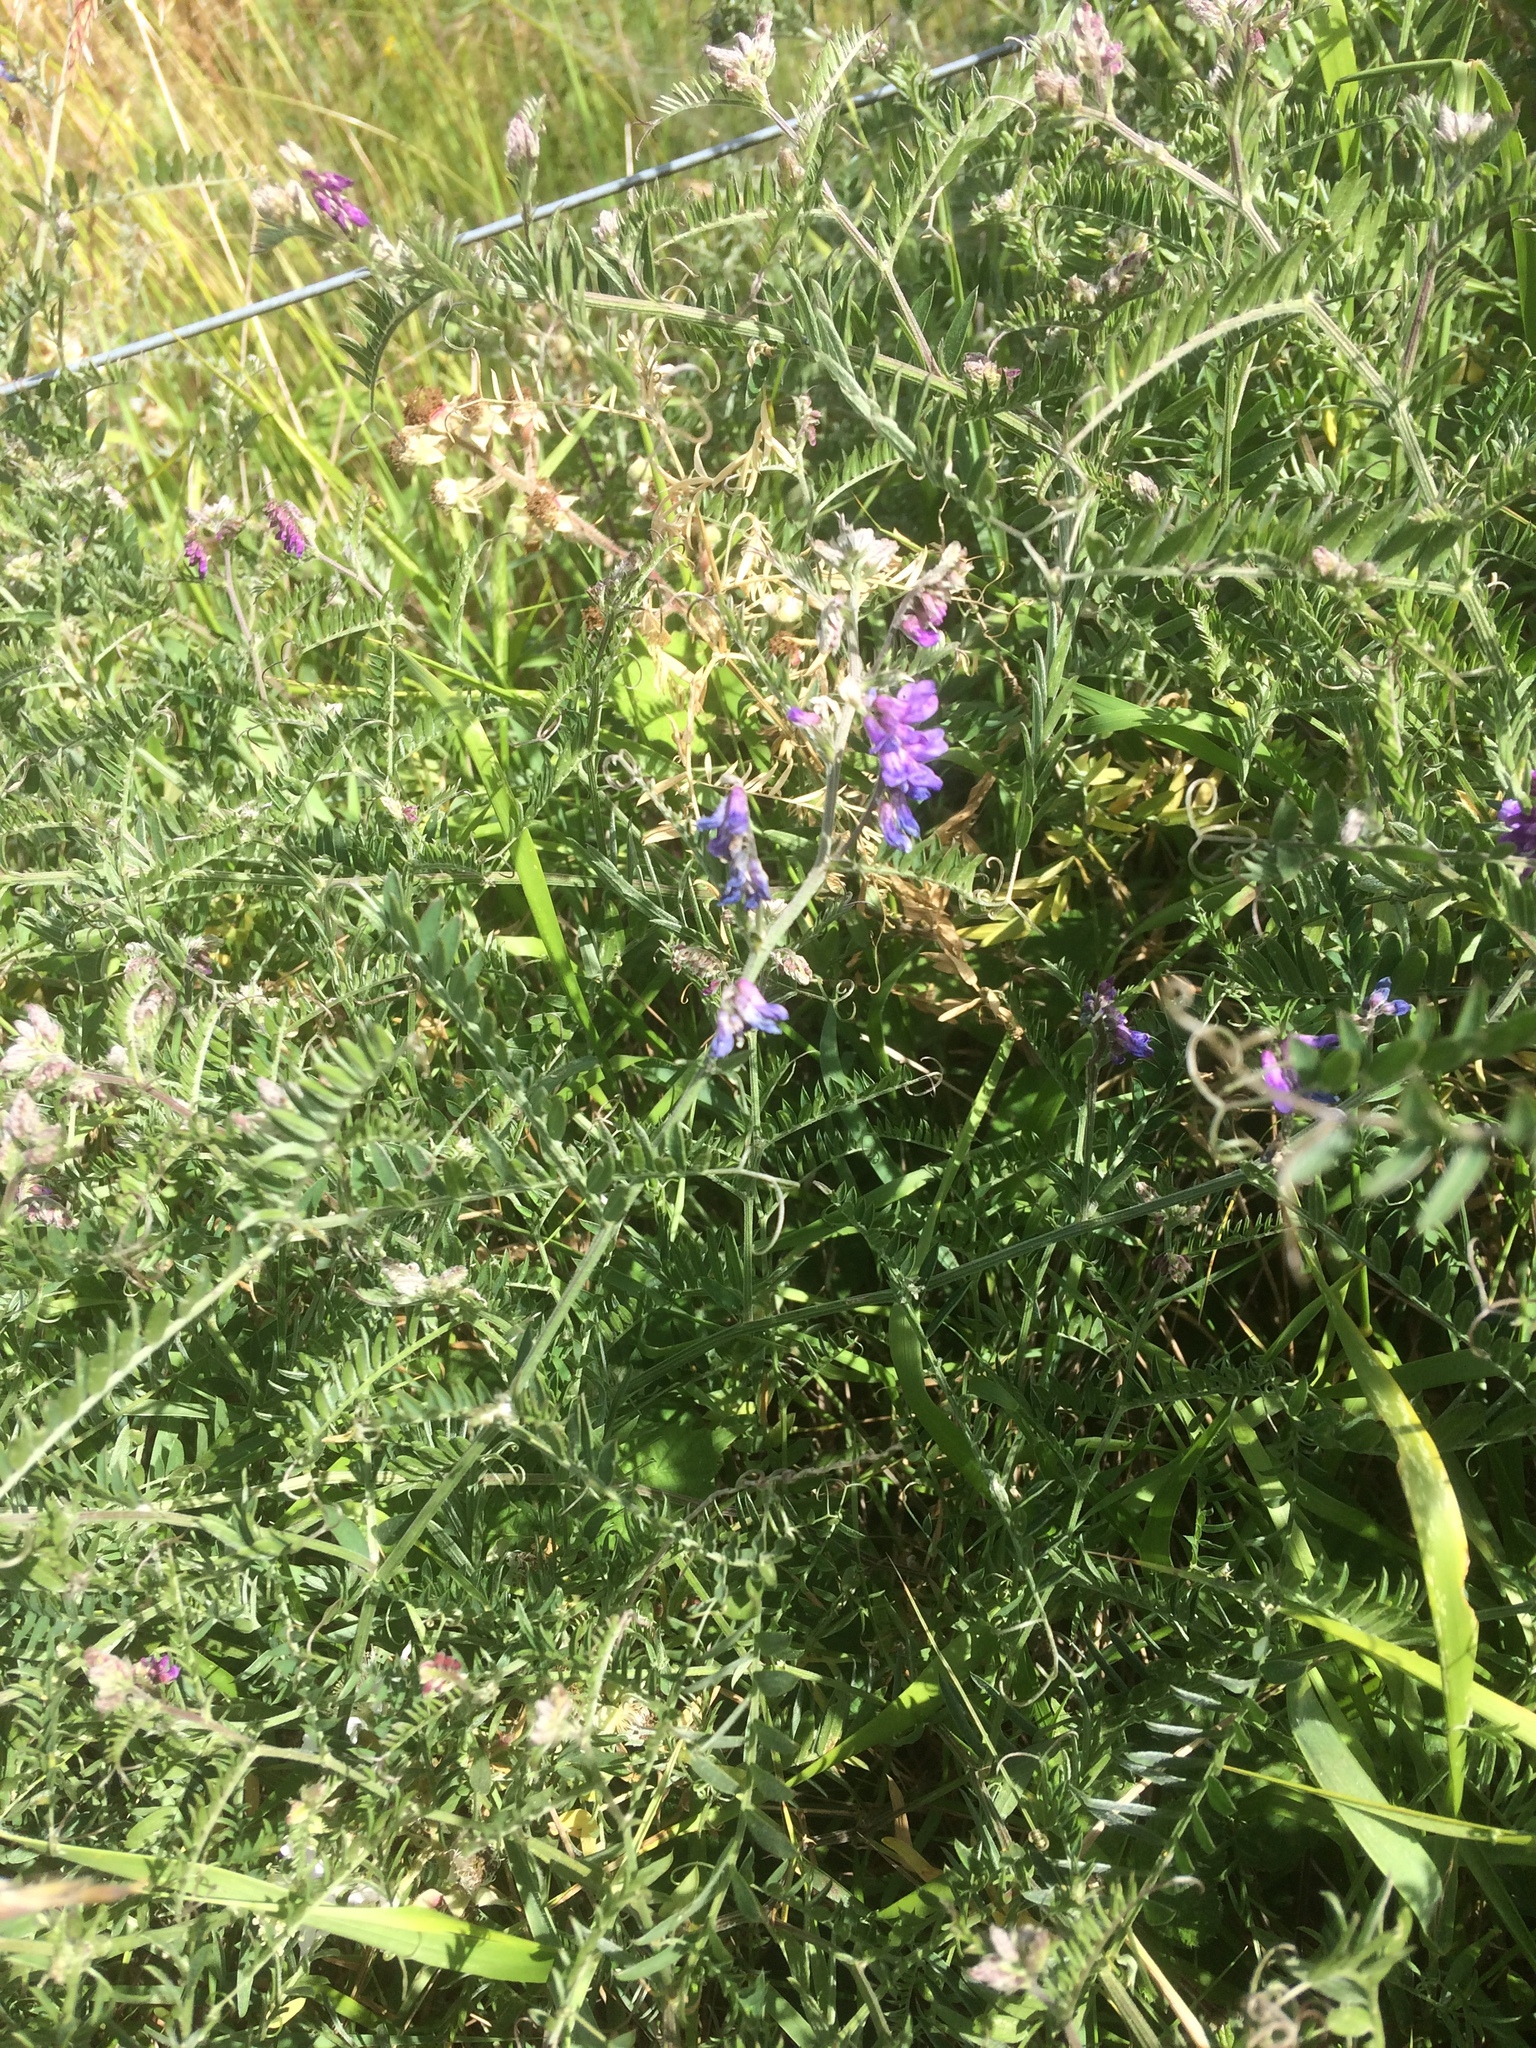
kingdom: Plantae
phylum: Tracheophyta
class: Magnoliopsida
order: Fabales
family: Fabaceae
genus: Vicia
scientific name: Vicia cracca
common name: Bird vetch
